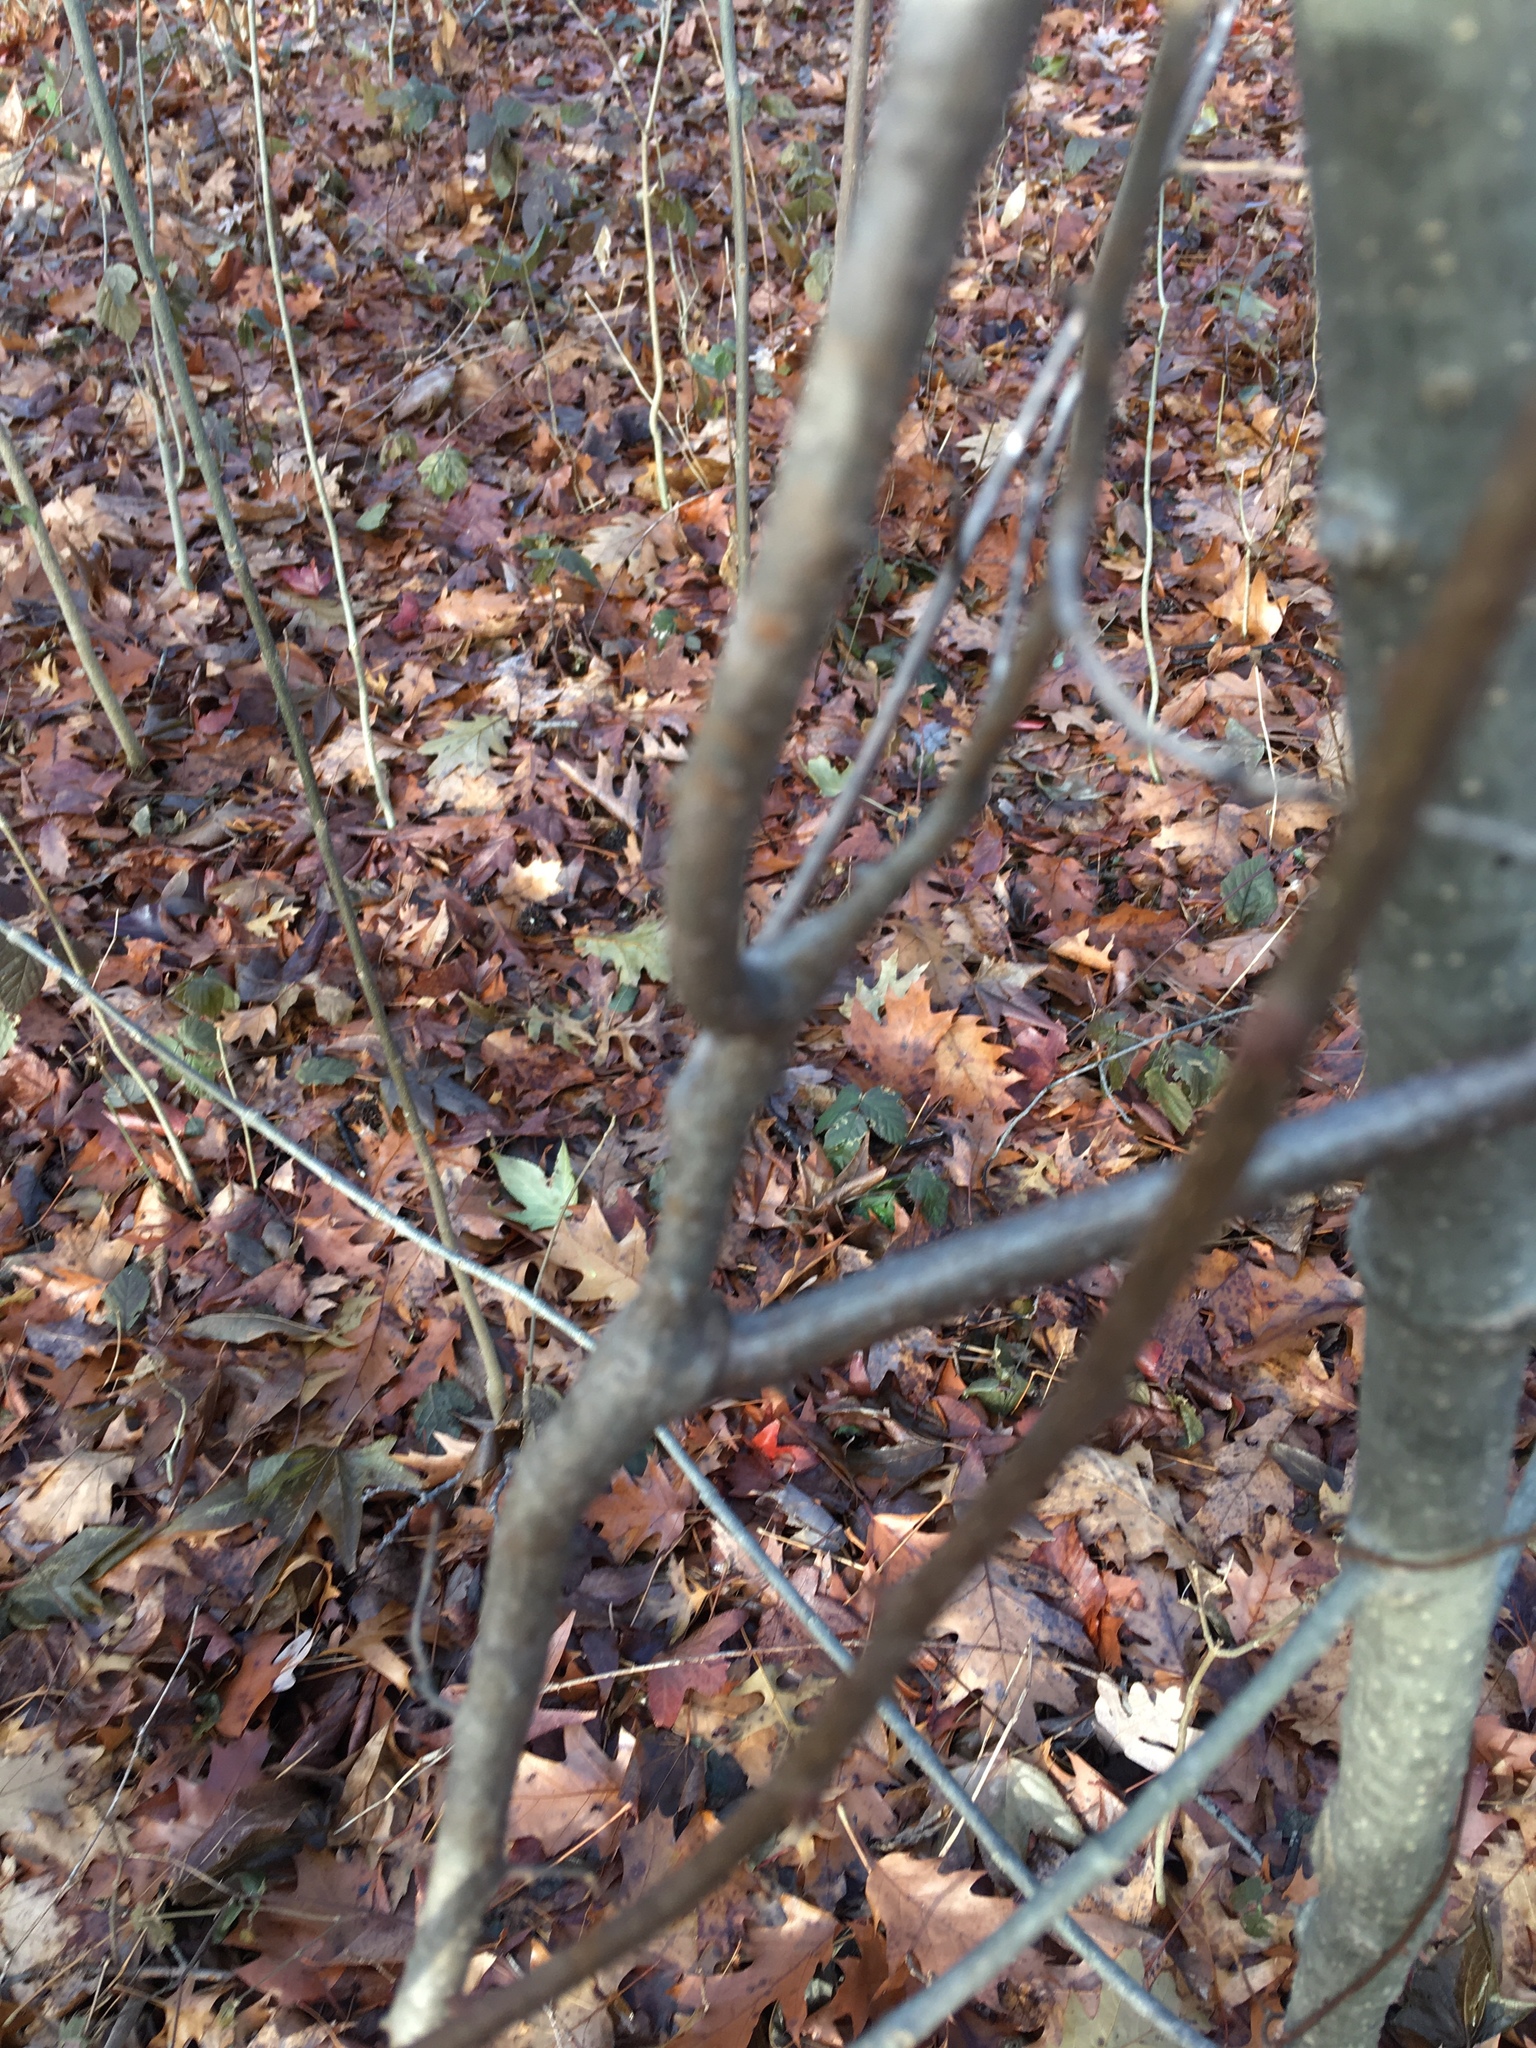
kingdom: Plantae
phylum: Tracheophyta
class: Magnoliopsida
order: Celastrales
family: Celastraceae
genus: Celastrus
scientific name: Celastrus orbiculatus
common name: Oriental bittersweet
